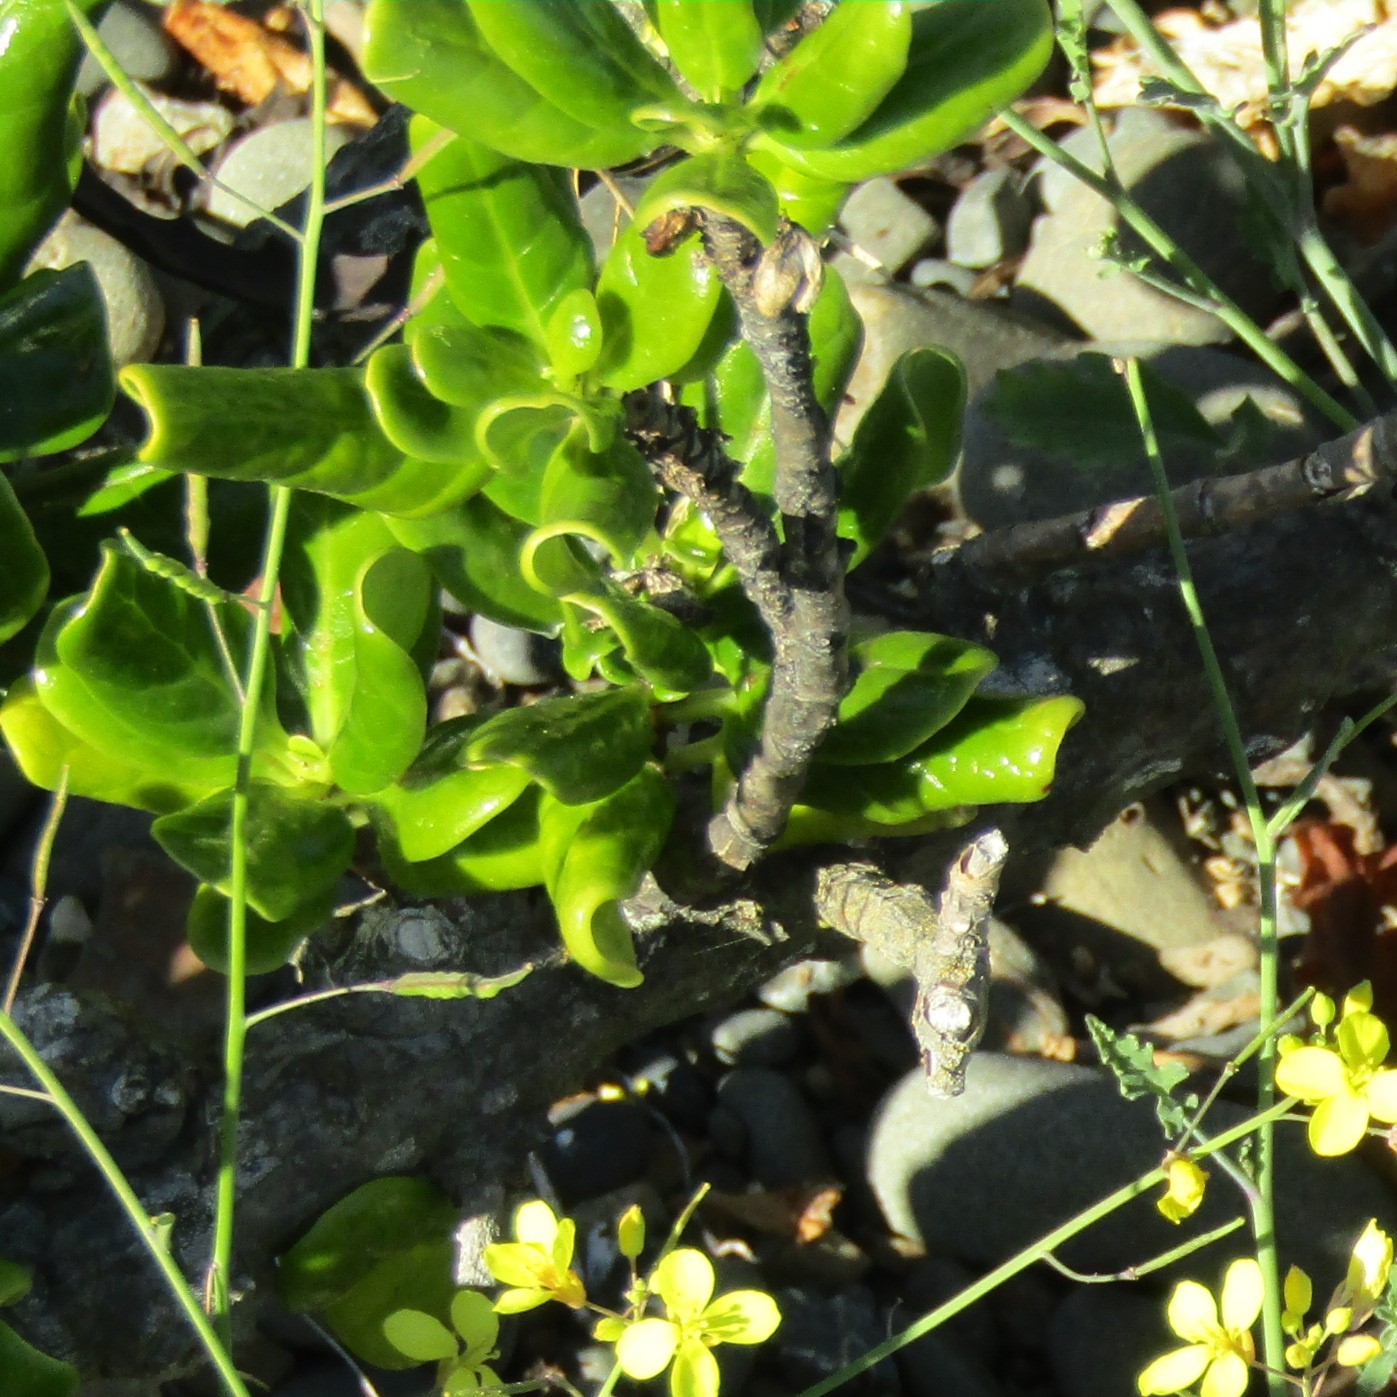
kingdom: Plantae
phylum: Tracheophyta
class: Magnoliopsida
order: Gentianales
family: Rubiaceae
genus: Coprosma
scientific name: Coprosma repens
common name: Tree bedstraw
